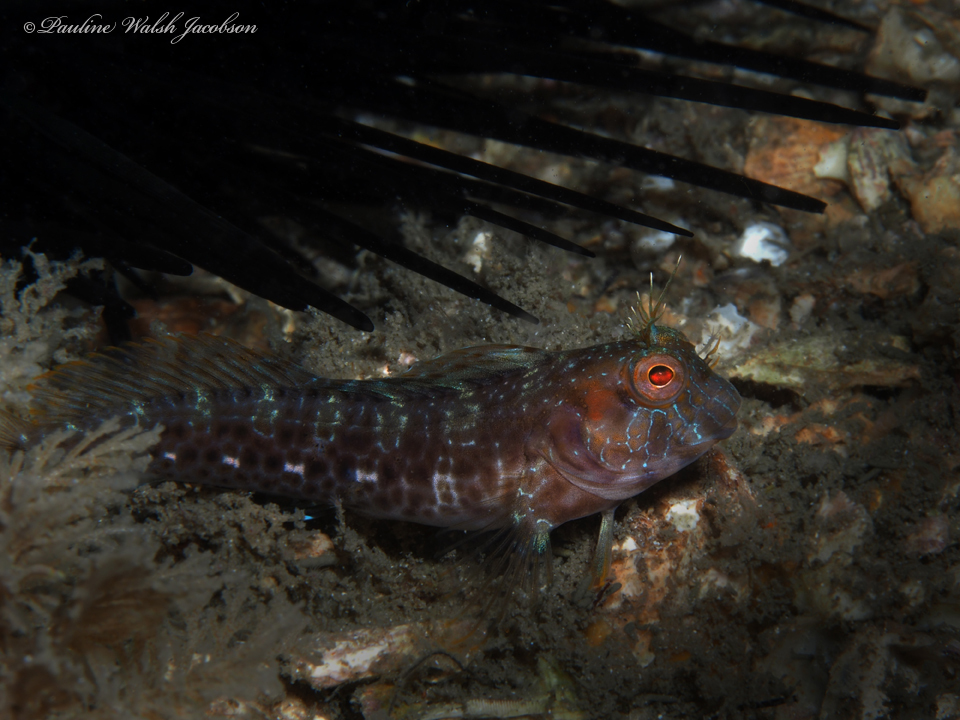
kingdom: Animalia
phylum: Chordata
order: Perciformes
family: Blenniidae
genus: Parablennius
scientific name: Parablennius marmoreus
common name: Seaweed blenny
